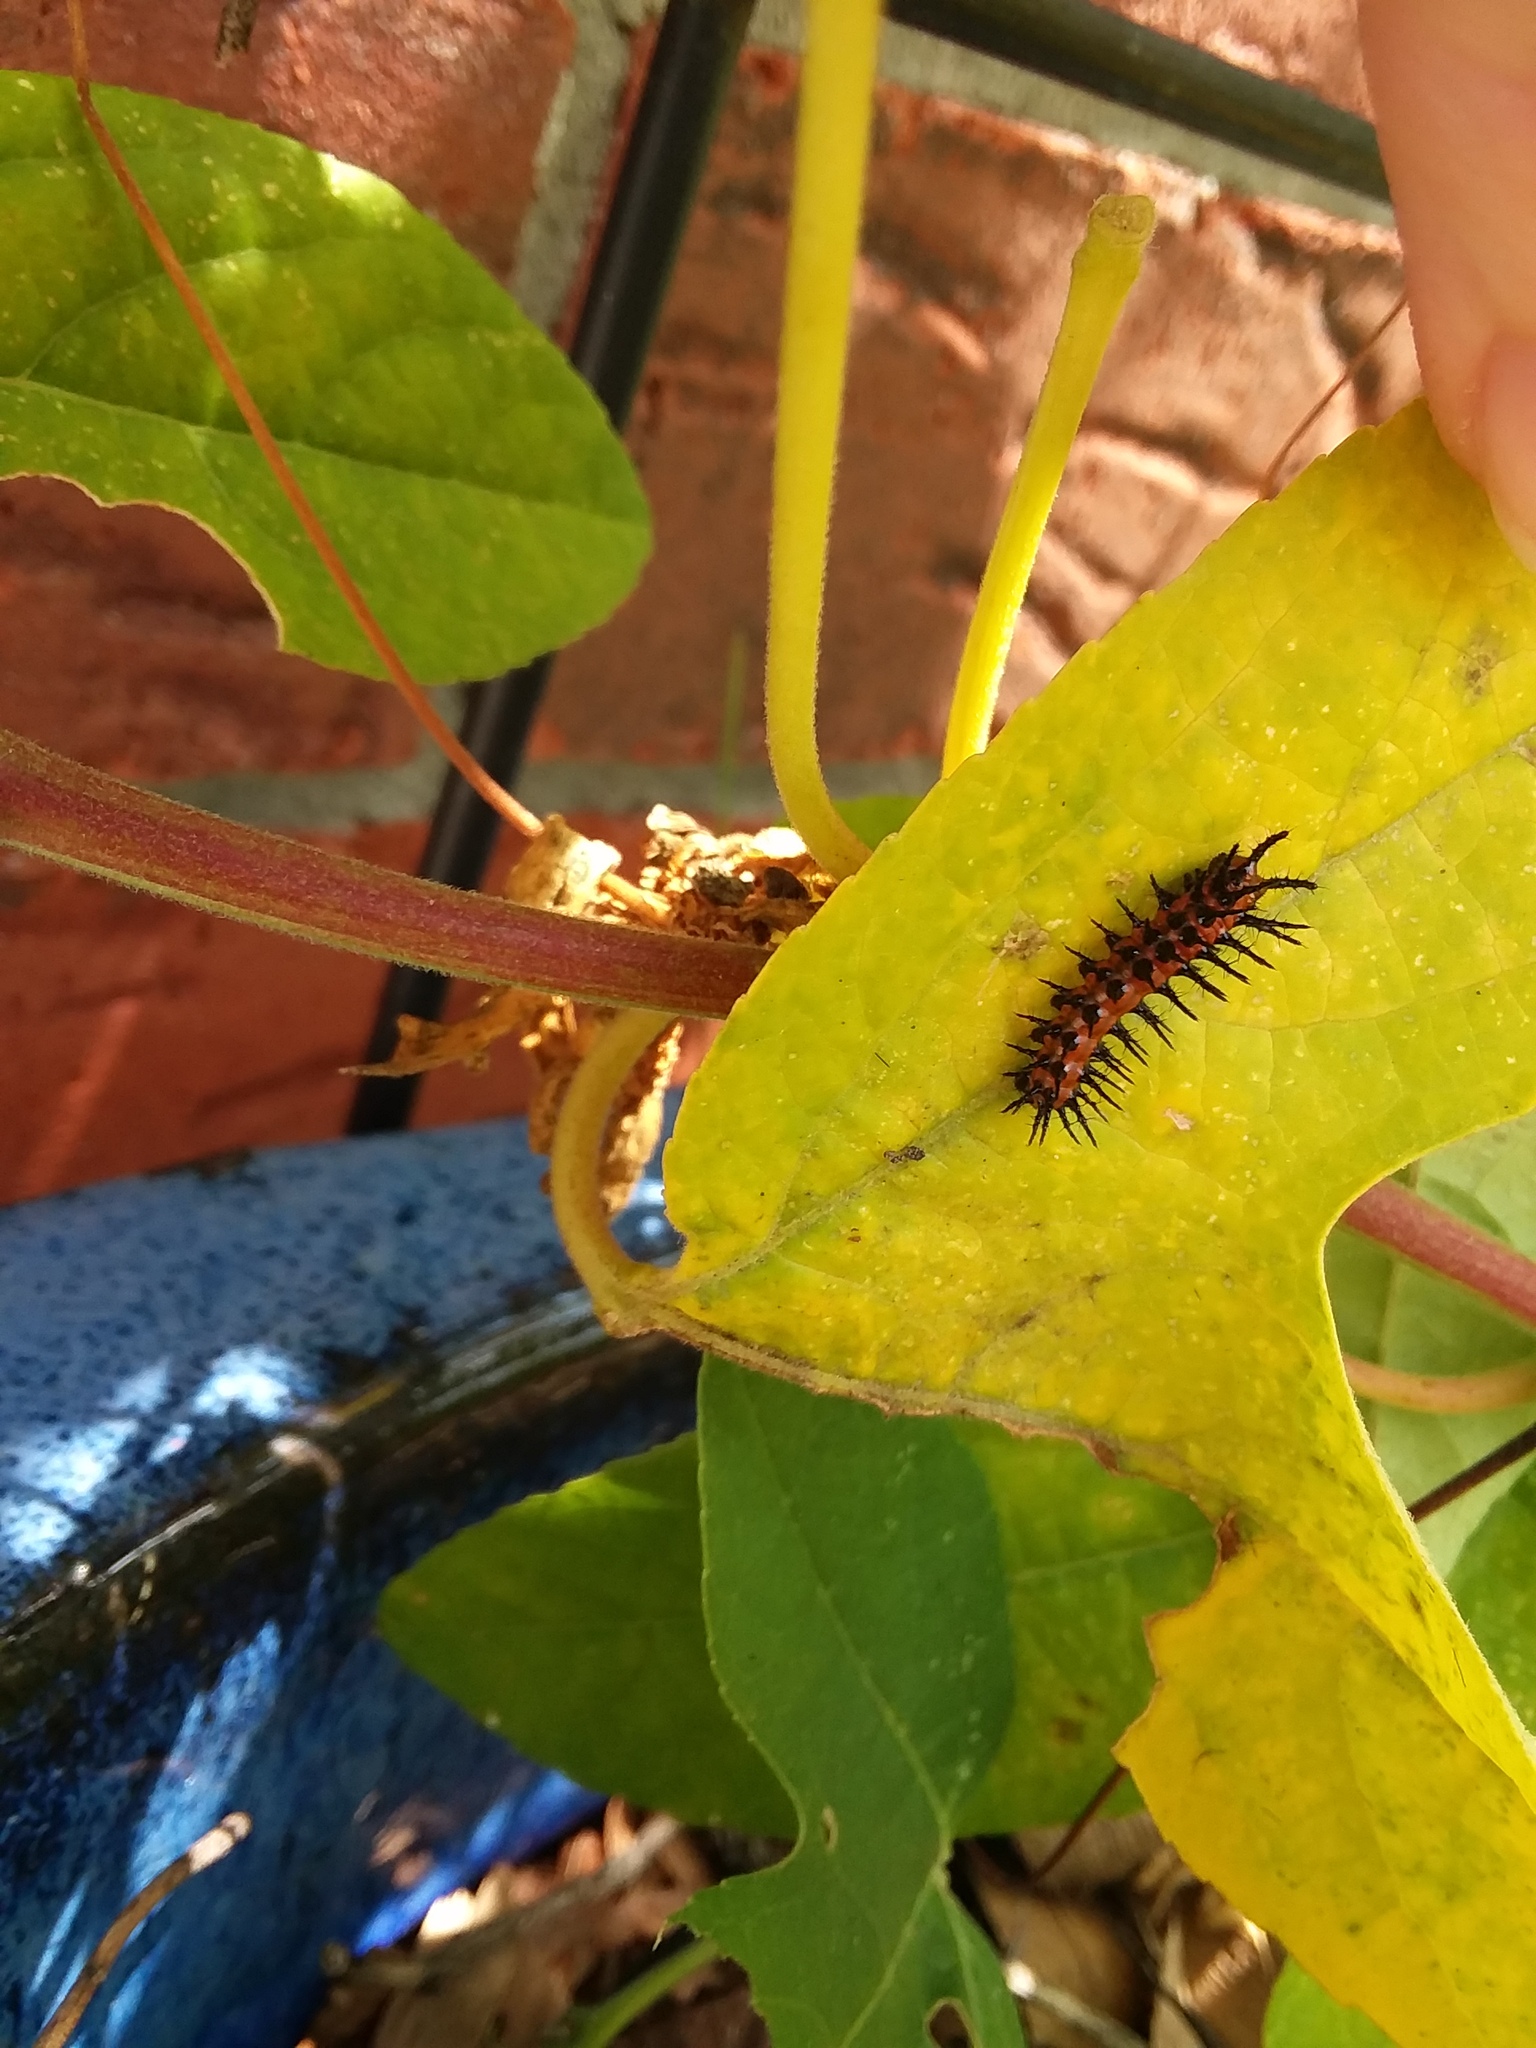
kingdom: Animalia
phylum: Arthropoda
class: Insecta
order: Lepidoptera
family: Nymphalidae
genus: Dione
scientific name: Dione vanillae
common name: Gulf fritillary
